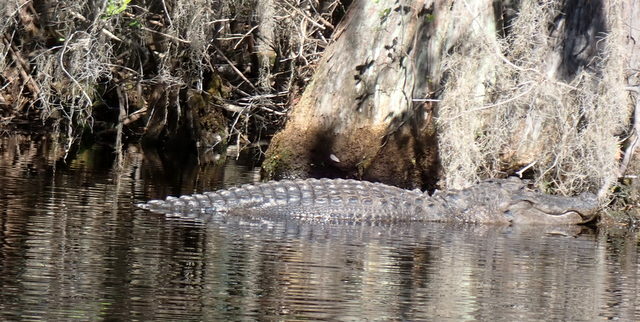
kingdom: Animalia
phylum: Chordata
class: Crocodylia
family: Alligatoridae
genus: Alligator
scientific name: Alligator mississippiensis
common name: American alligator
